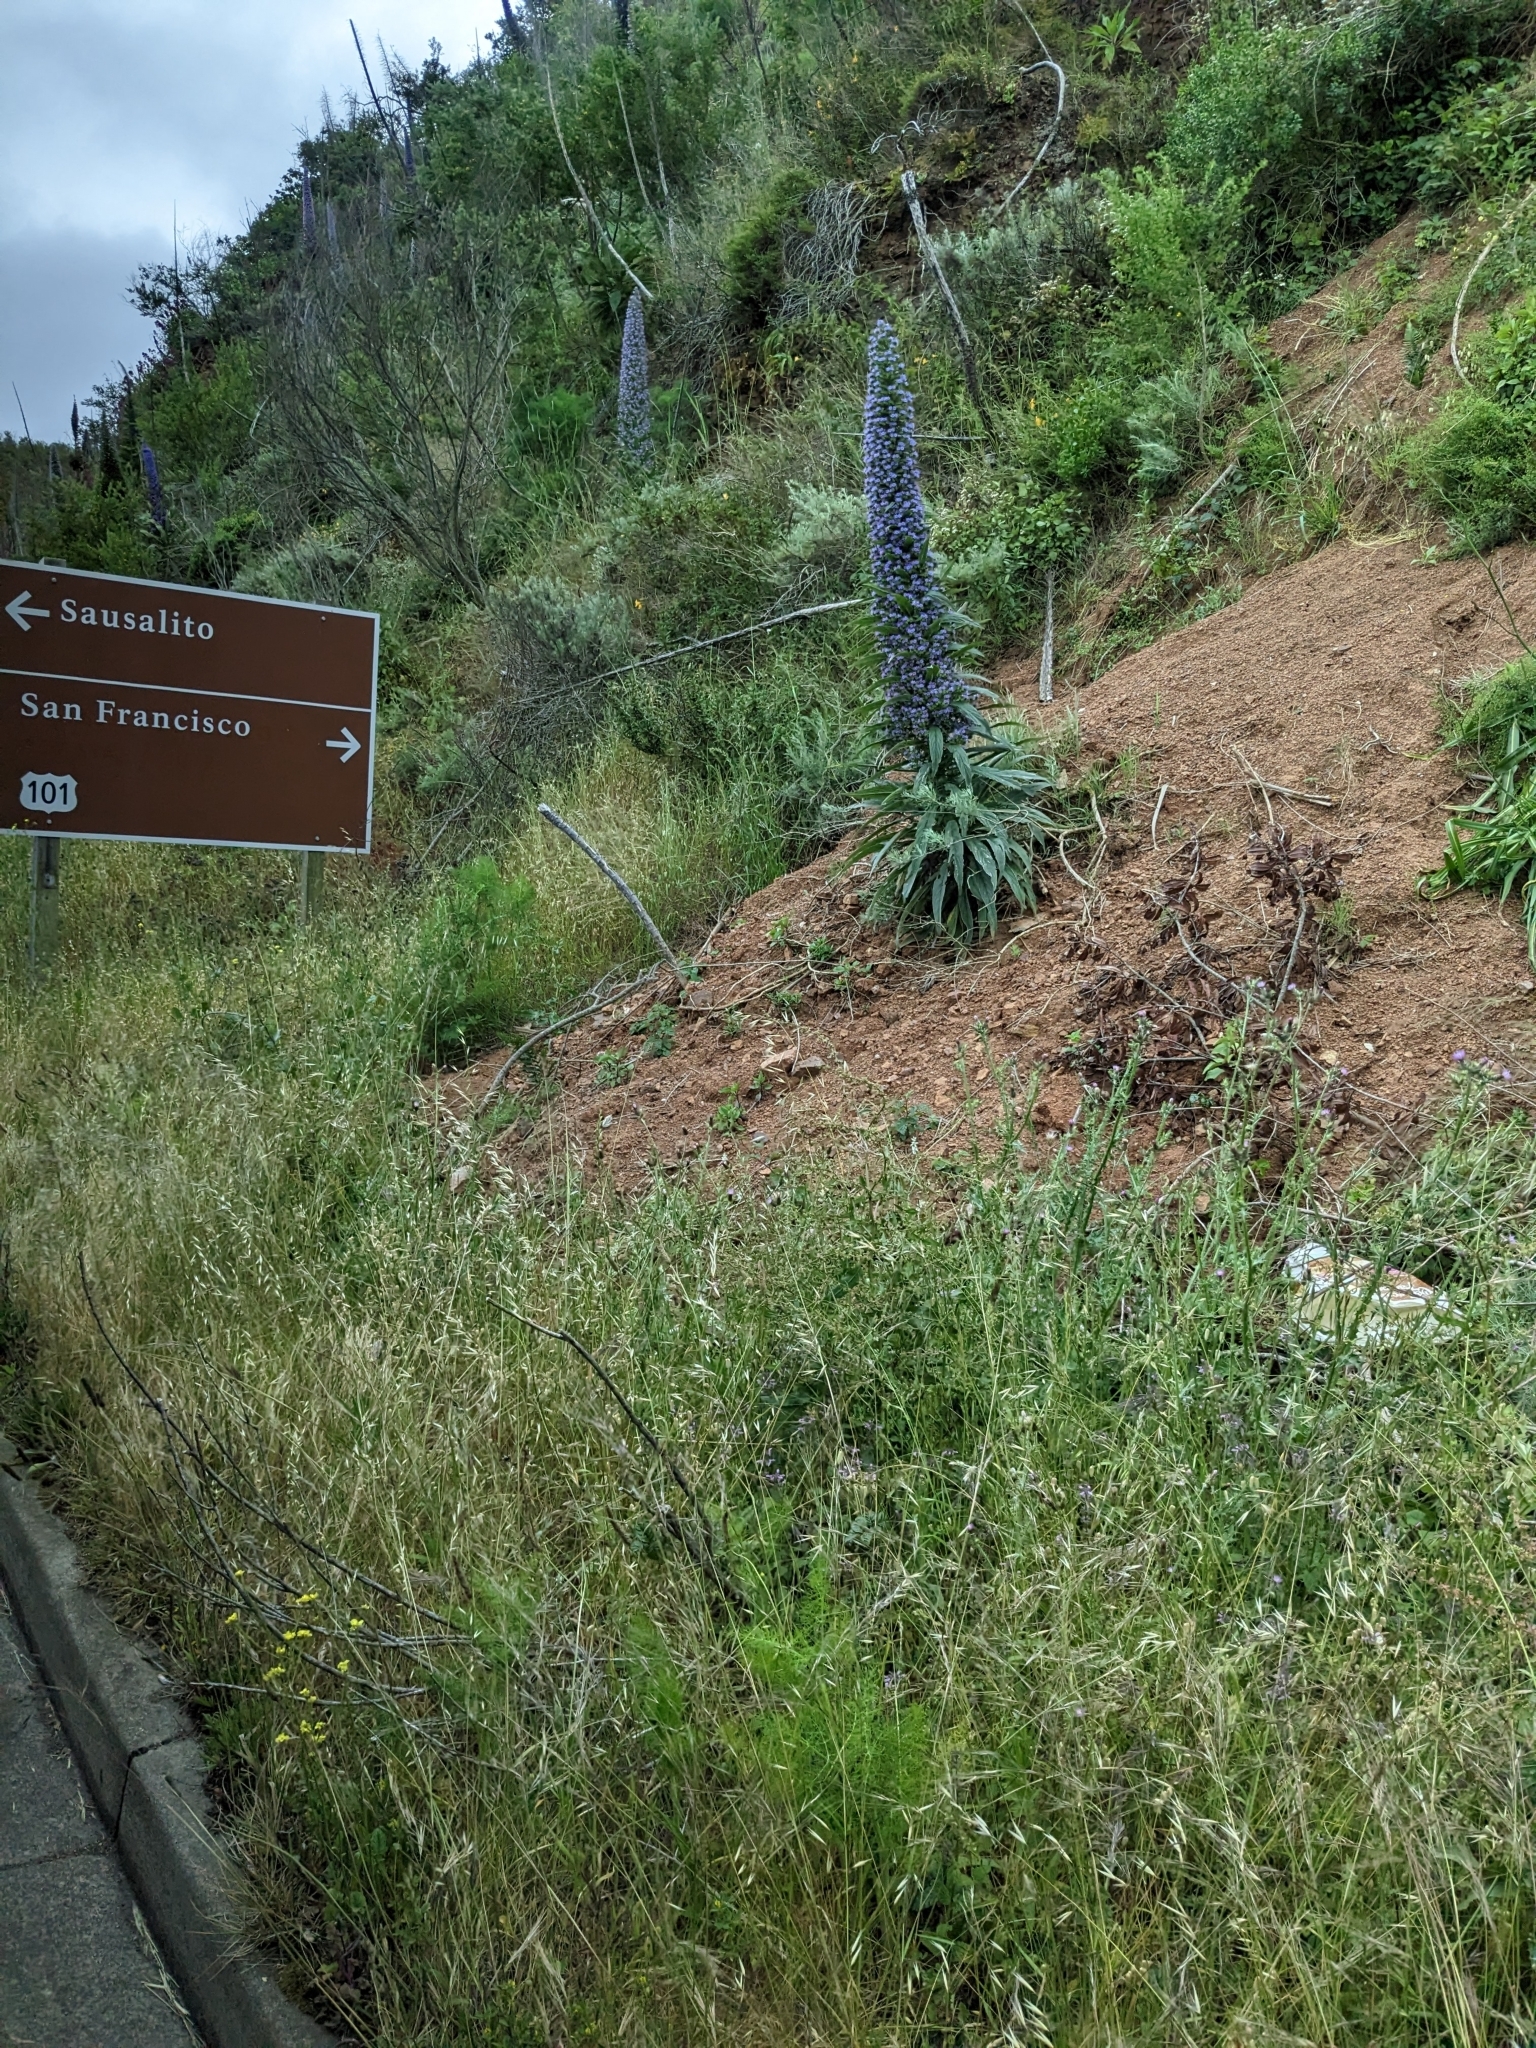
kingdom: Plantae
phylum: Tracheophyta
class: Magnoliopsida
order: Boraginales
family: Boraginaceae
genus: Echium
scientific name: Echium pininana
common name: Giant viper's-bugloss
